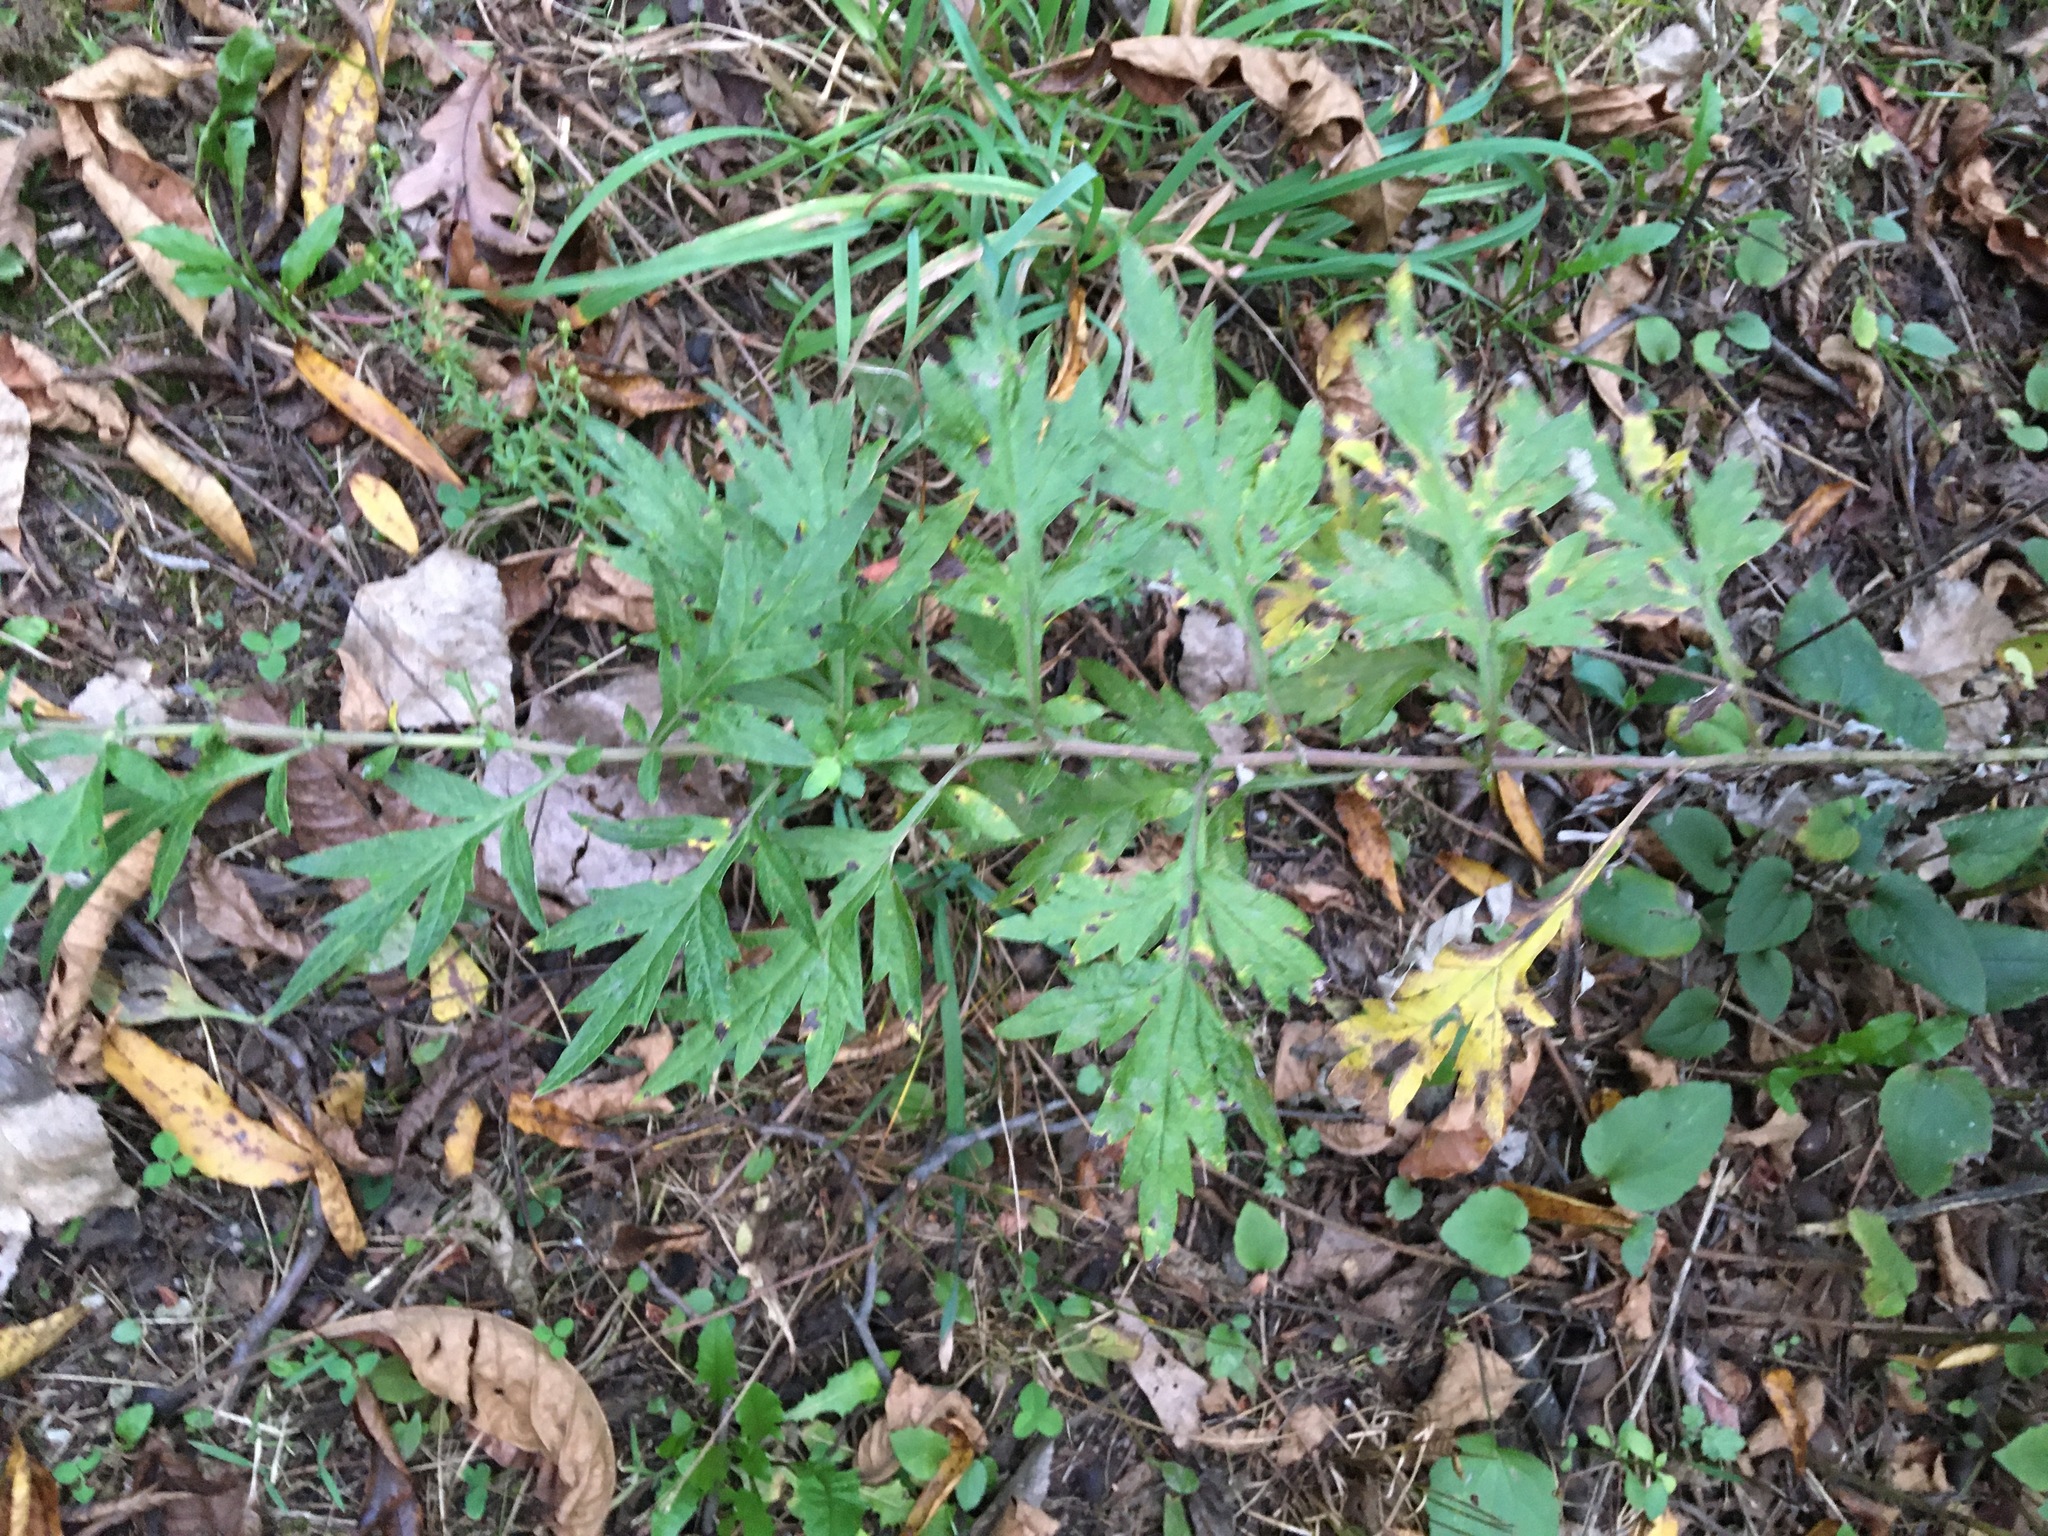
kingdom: Plantae
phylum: Tracheophyta
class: Magnoliopsida
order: Asterales
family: Asteraceae
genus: Artemisia
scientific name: Artemisia vulgaris
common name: Mugwort
